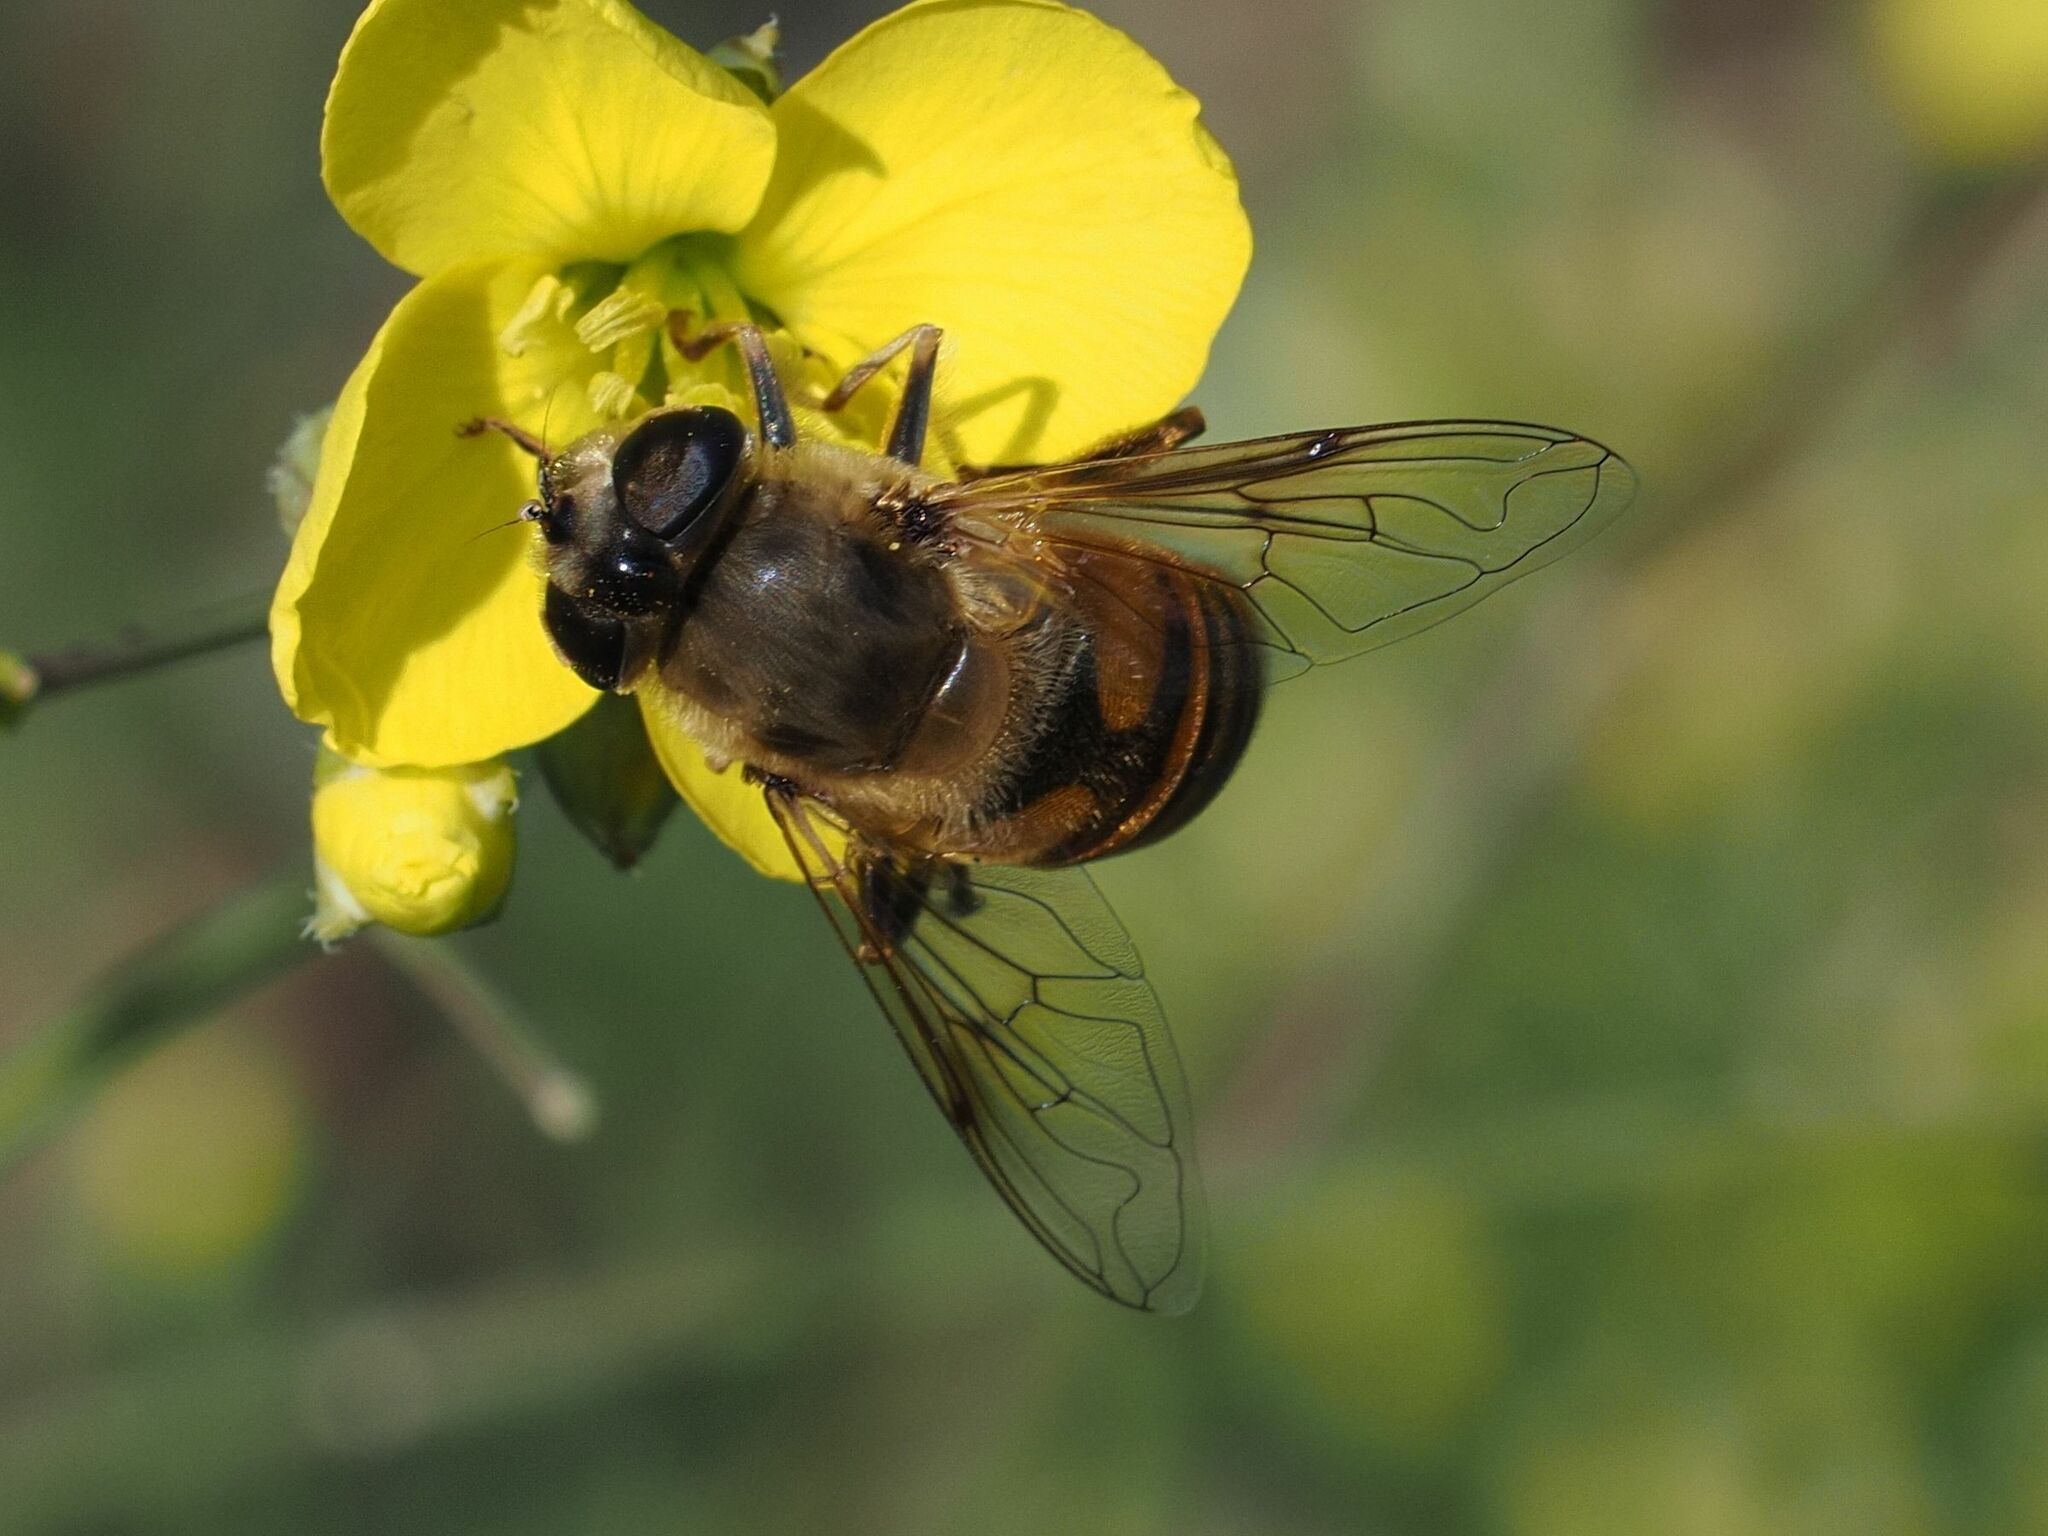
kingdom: Animalia
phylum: Arthropoda
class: Insecta
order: Diptera
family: Syrphidae
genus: Eristalis
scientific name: Eristalis tenax
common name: Drone fly
